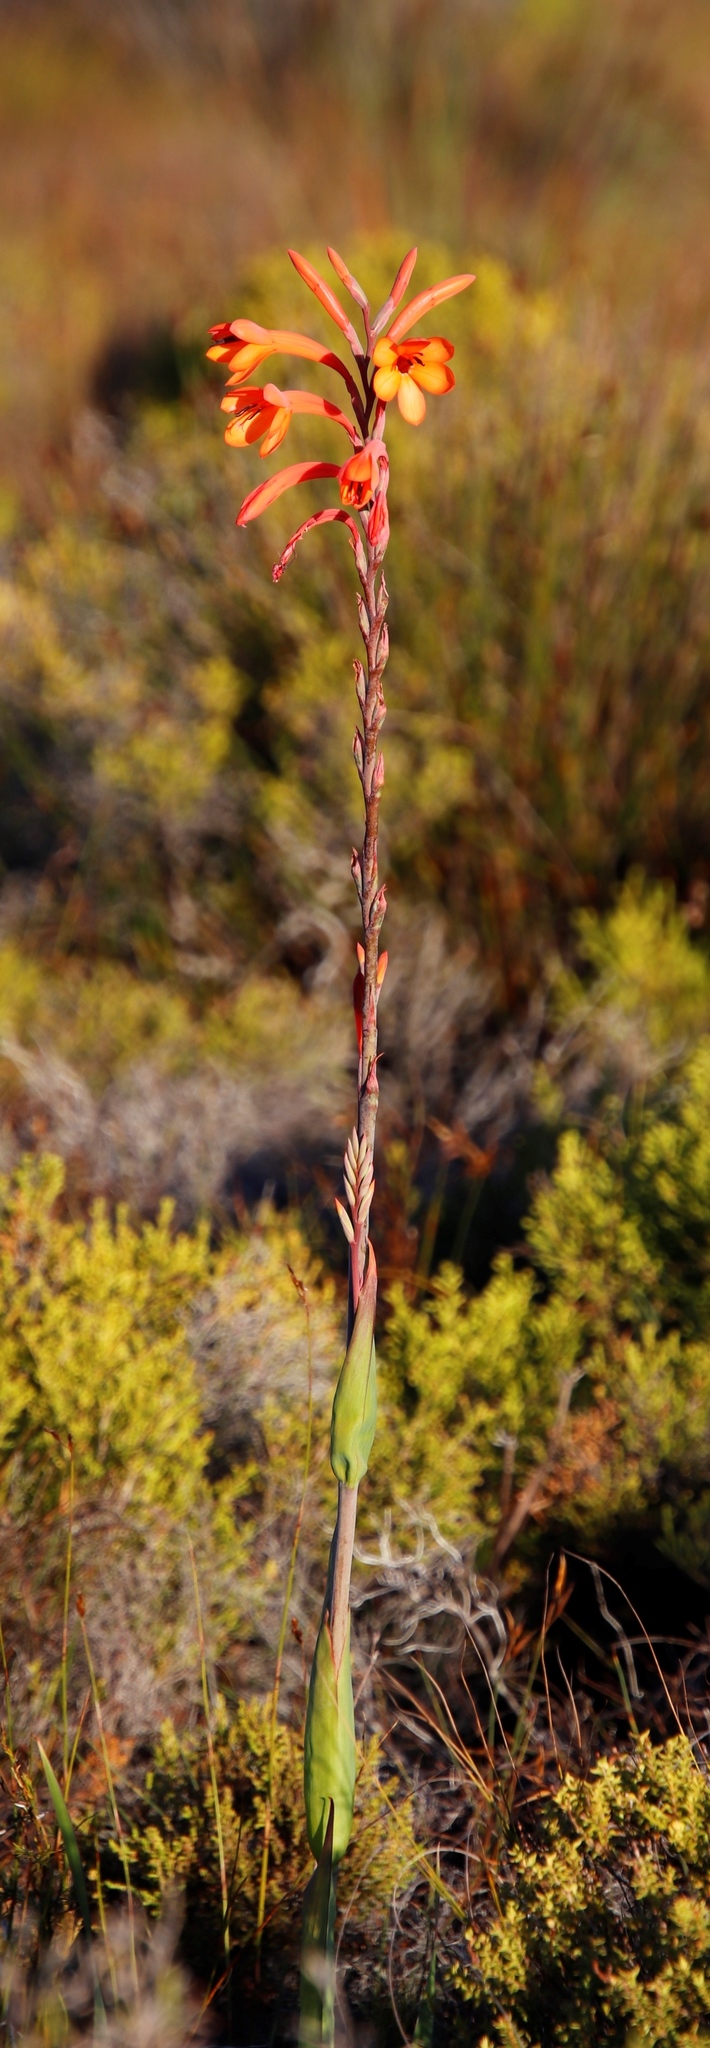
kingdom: Plantae
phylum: Tracheophyta
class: Liliopsida
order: Asparagales
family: Iridaceae
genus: Watsonia
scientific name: Watsonia tabularis
